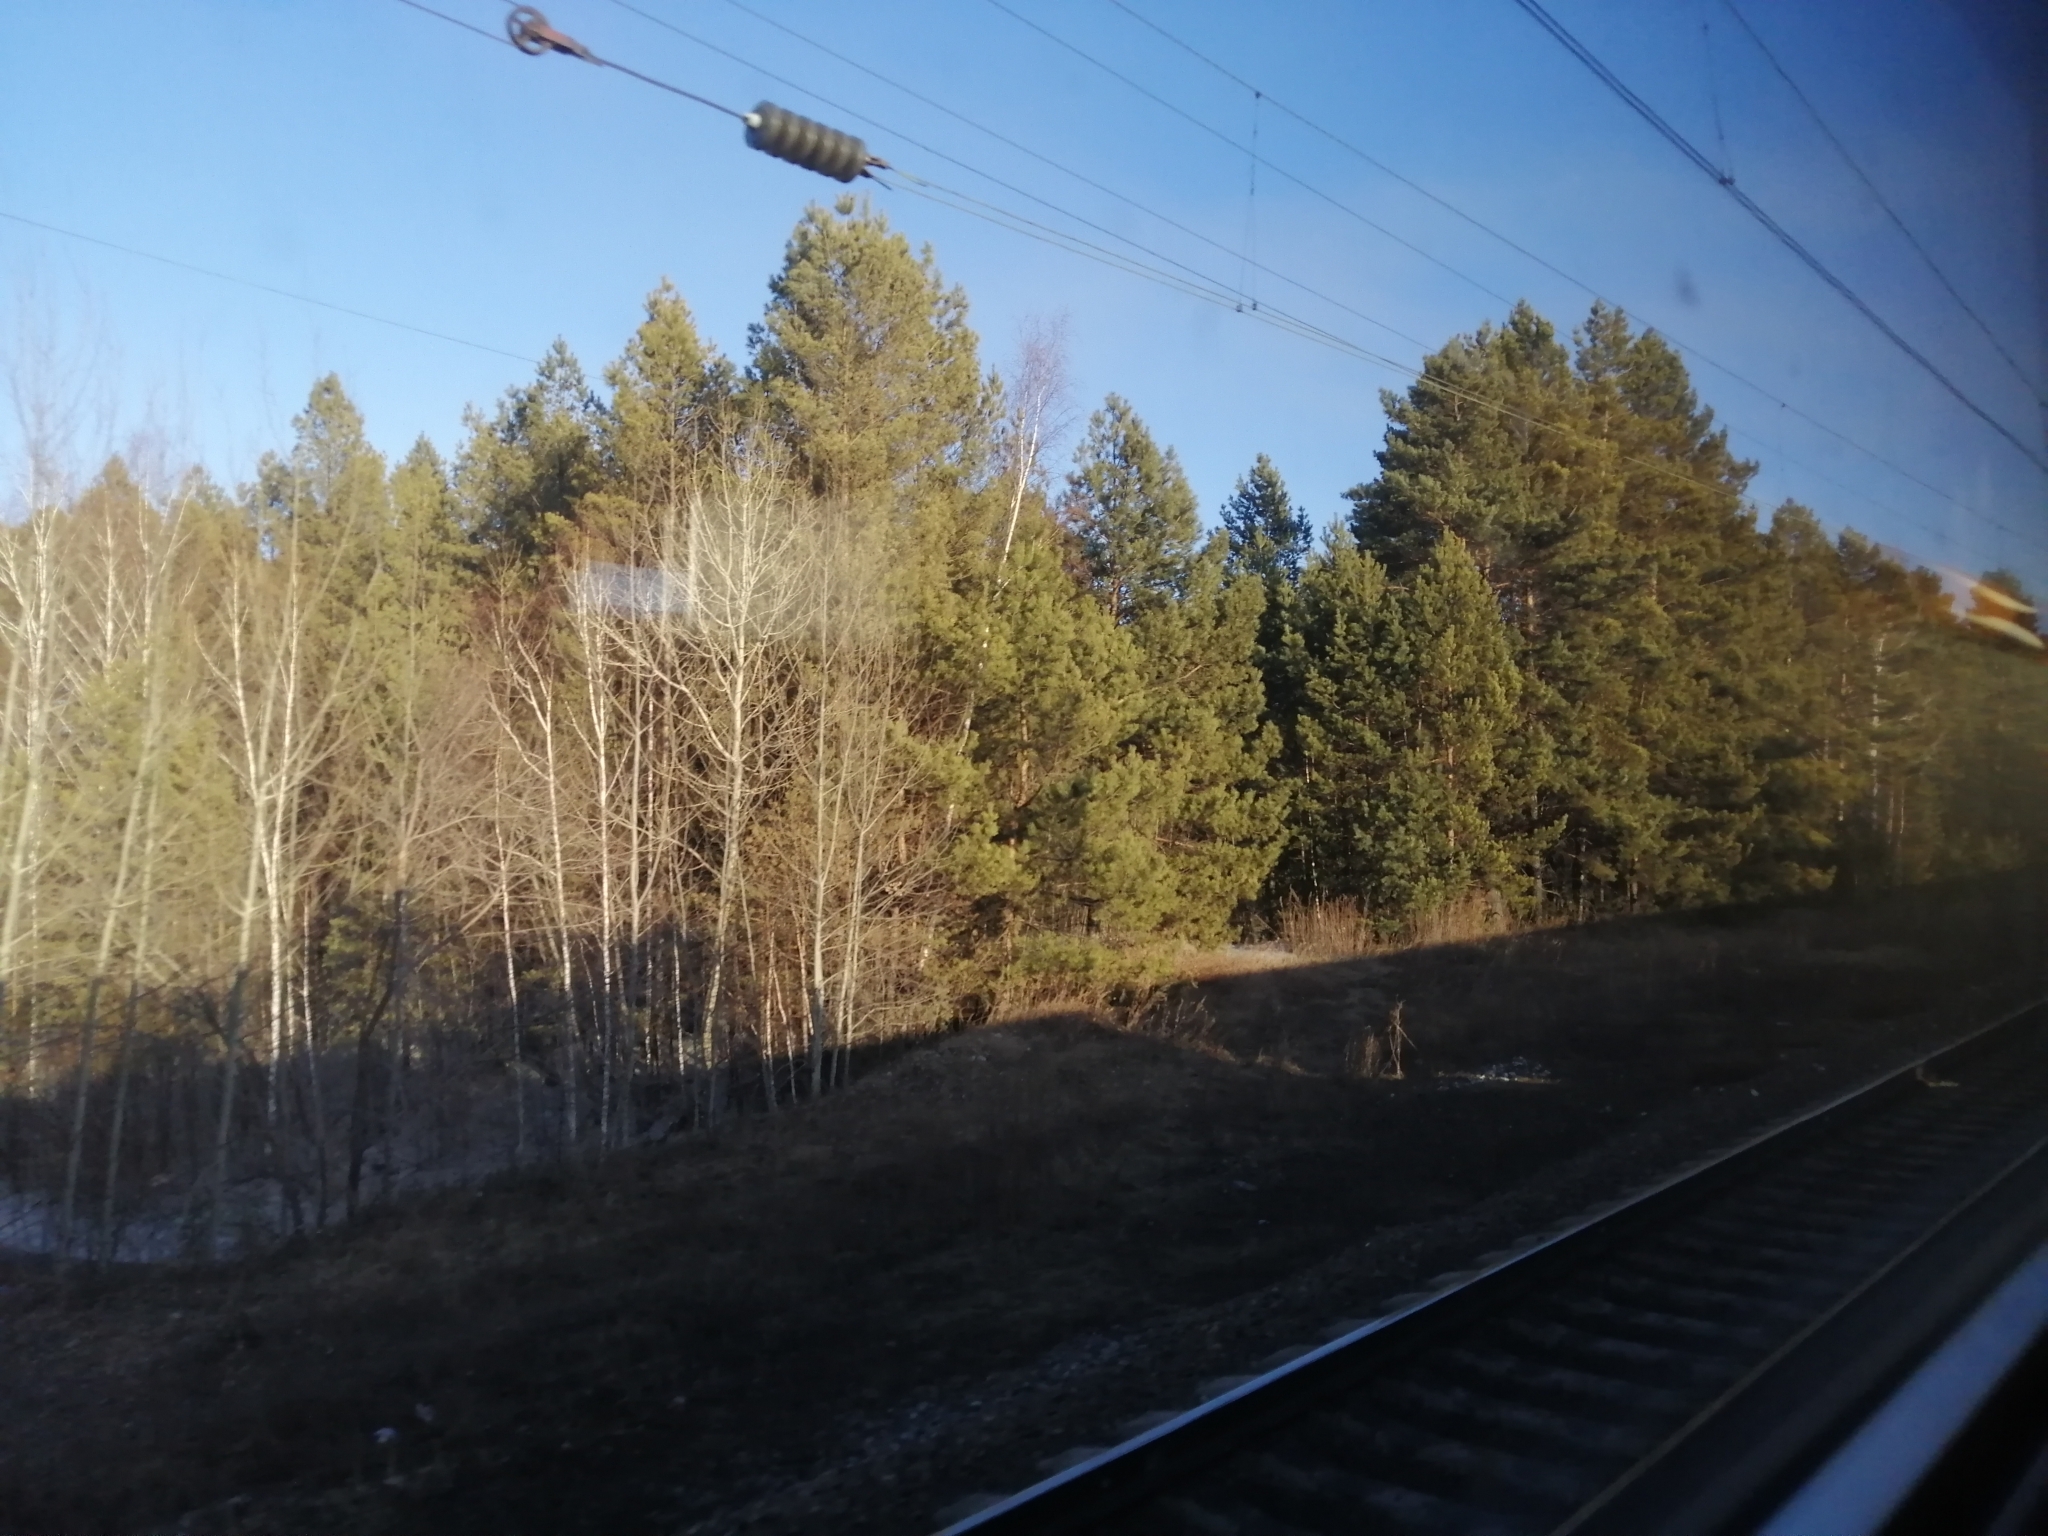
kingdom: Plantae
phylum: Tracheophyta
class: Pinopsida
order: Pinales
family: Pinaceae
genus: Pinus
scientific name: Pinus sylvestris
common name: Scots pine
